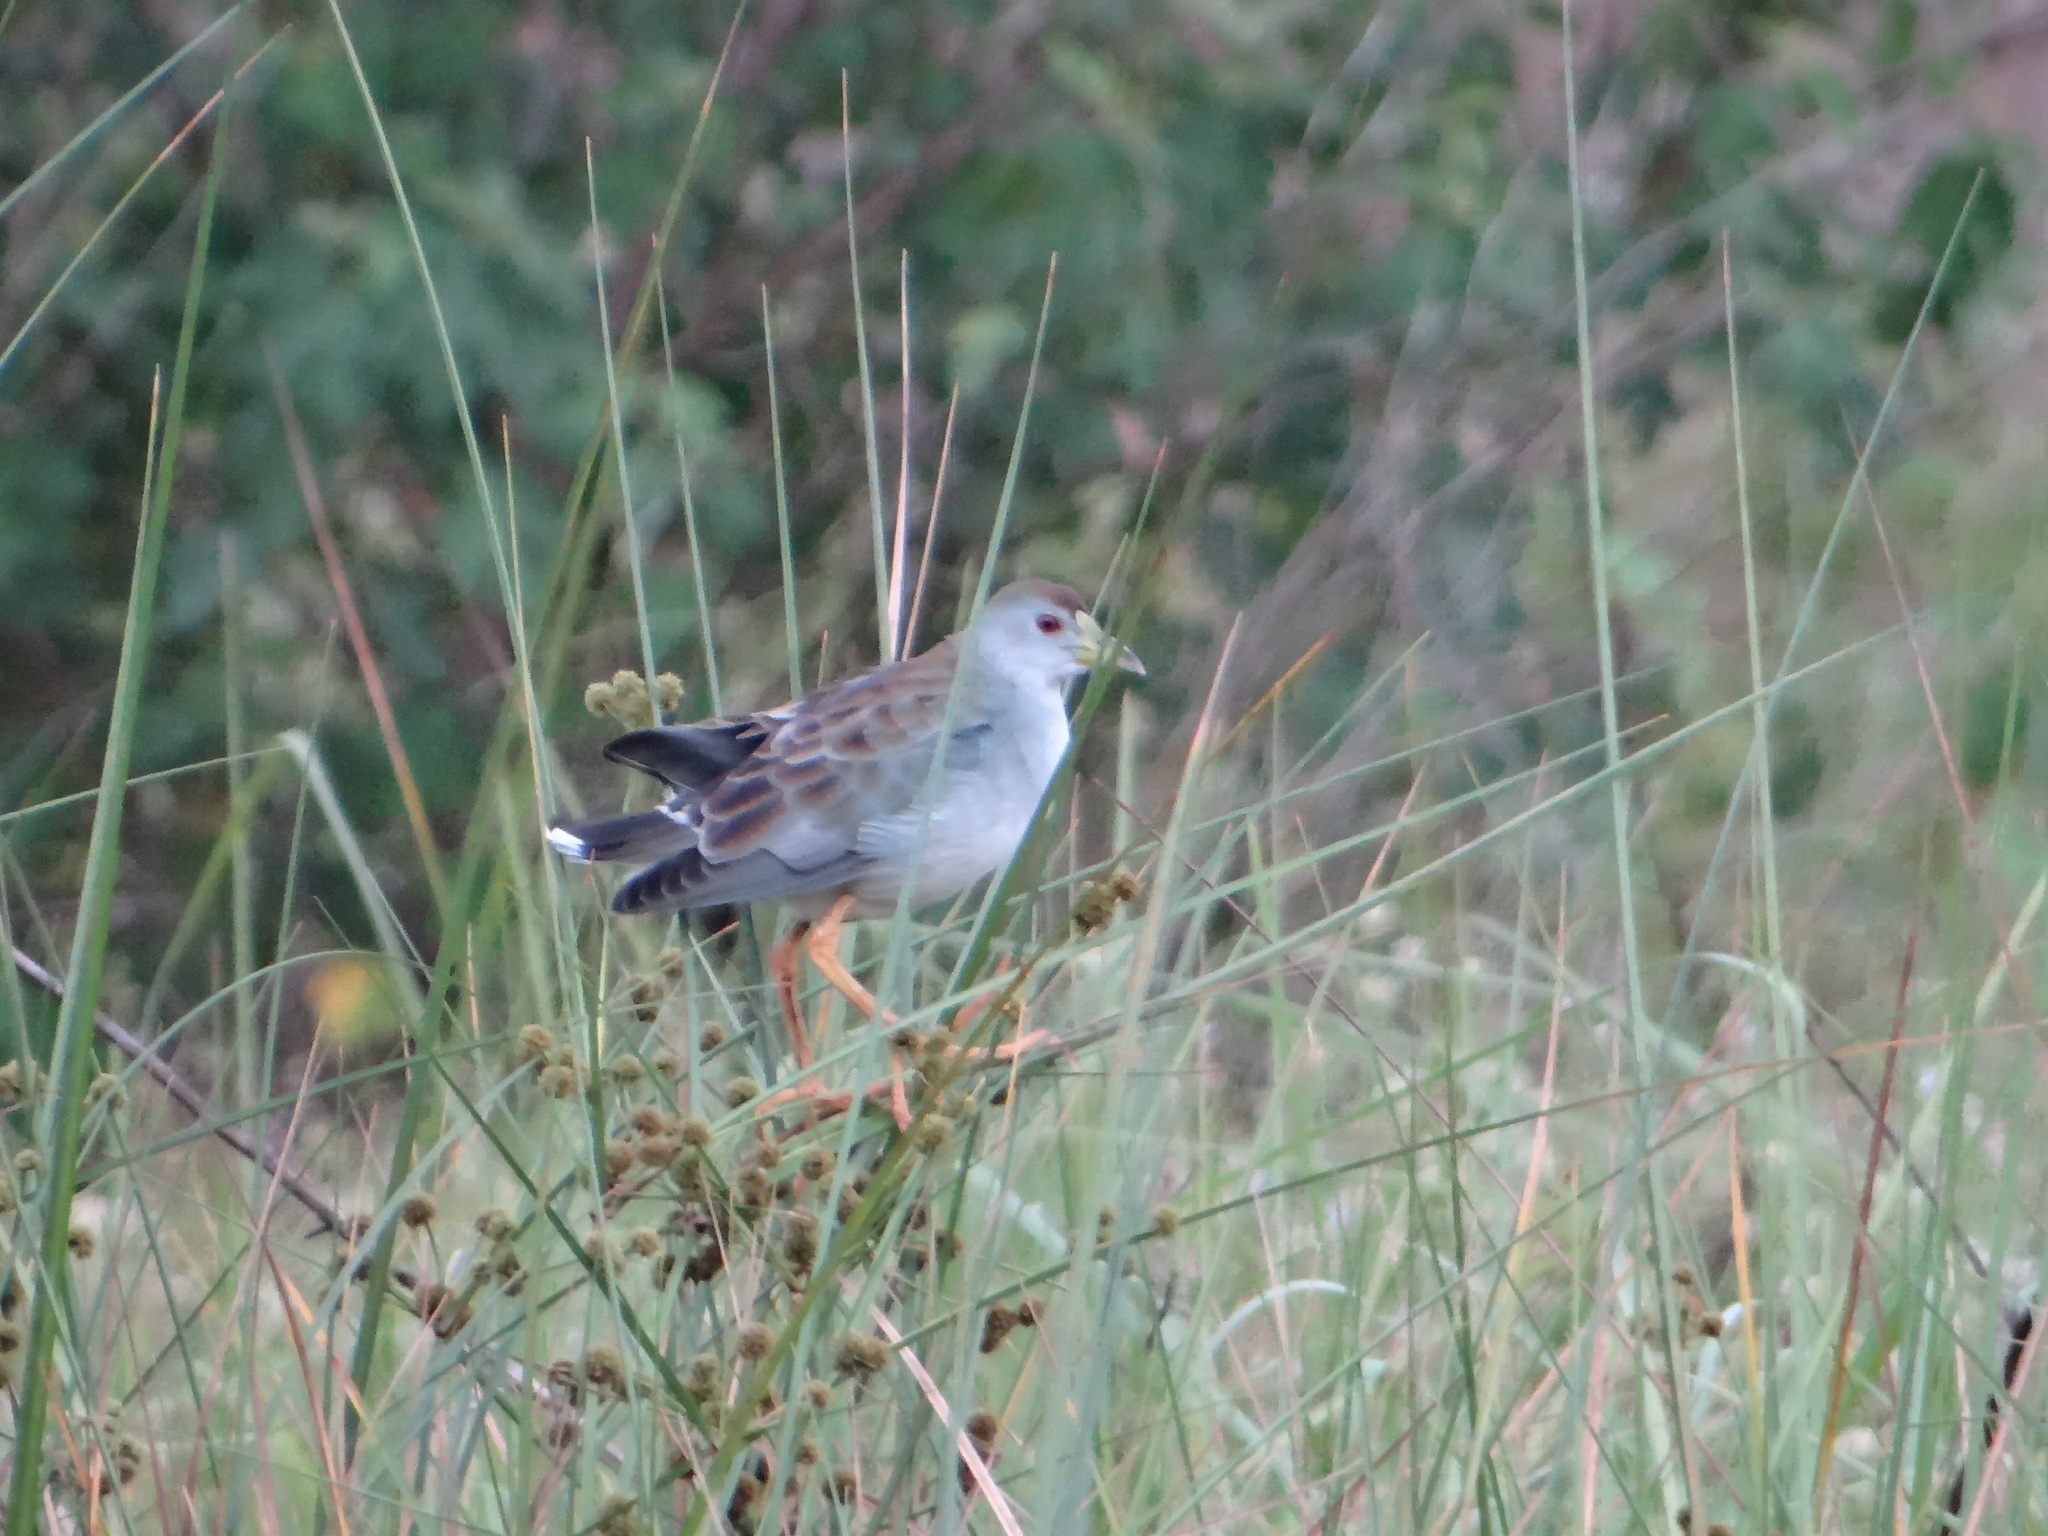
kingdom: Animalia
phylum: Chordata
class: Aves
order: Gruiformes
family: Rallidae
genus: Porphyrio
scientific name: Porphyrio flavirostris
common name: Azure gallinule
